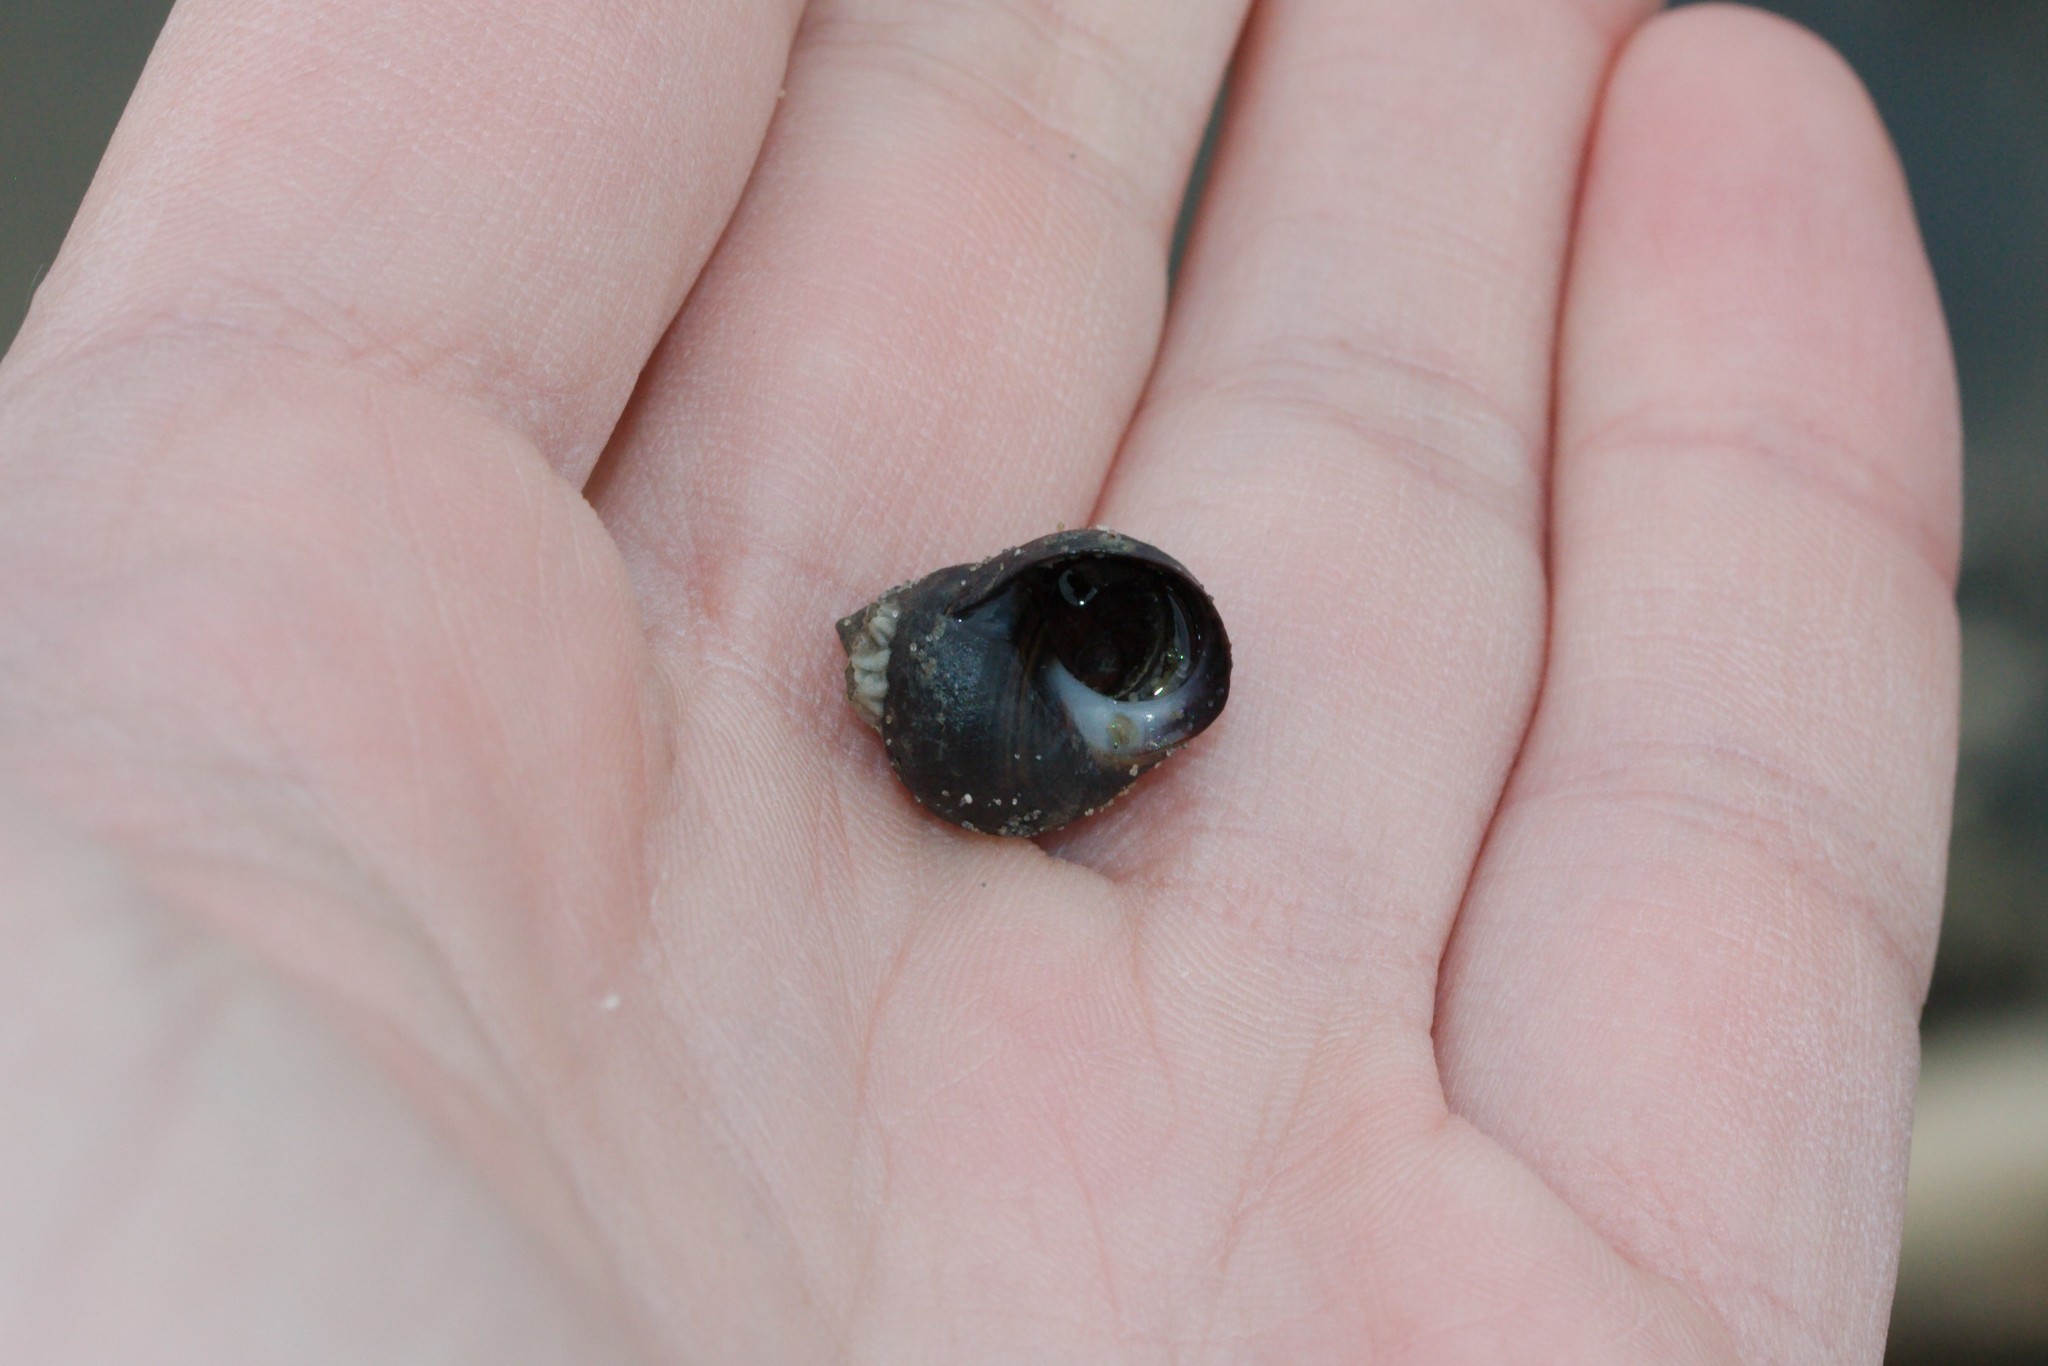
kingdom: Animalia
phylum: Mollusca
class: Gastropoda
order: Littorinimorpha
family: Littorinidae
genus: Littorina
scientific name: Littorina littorea
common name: Common periwinkle
